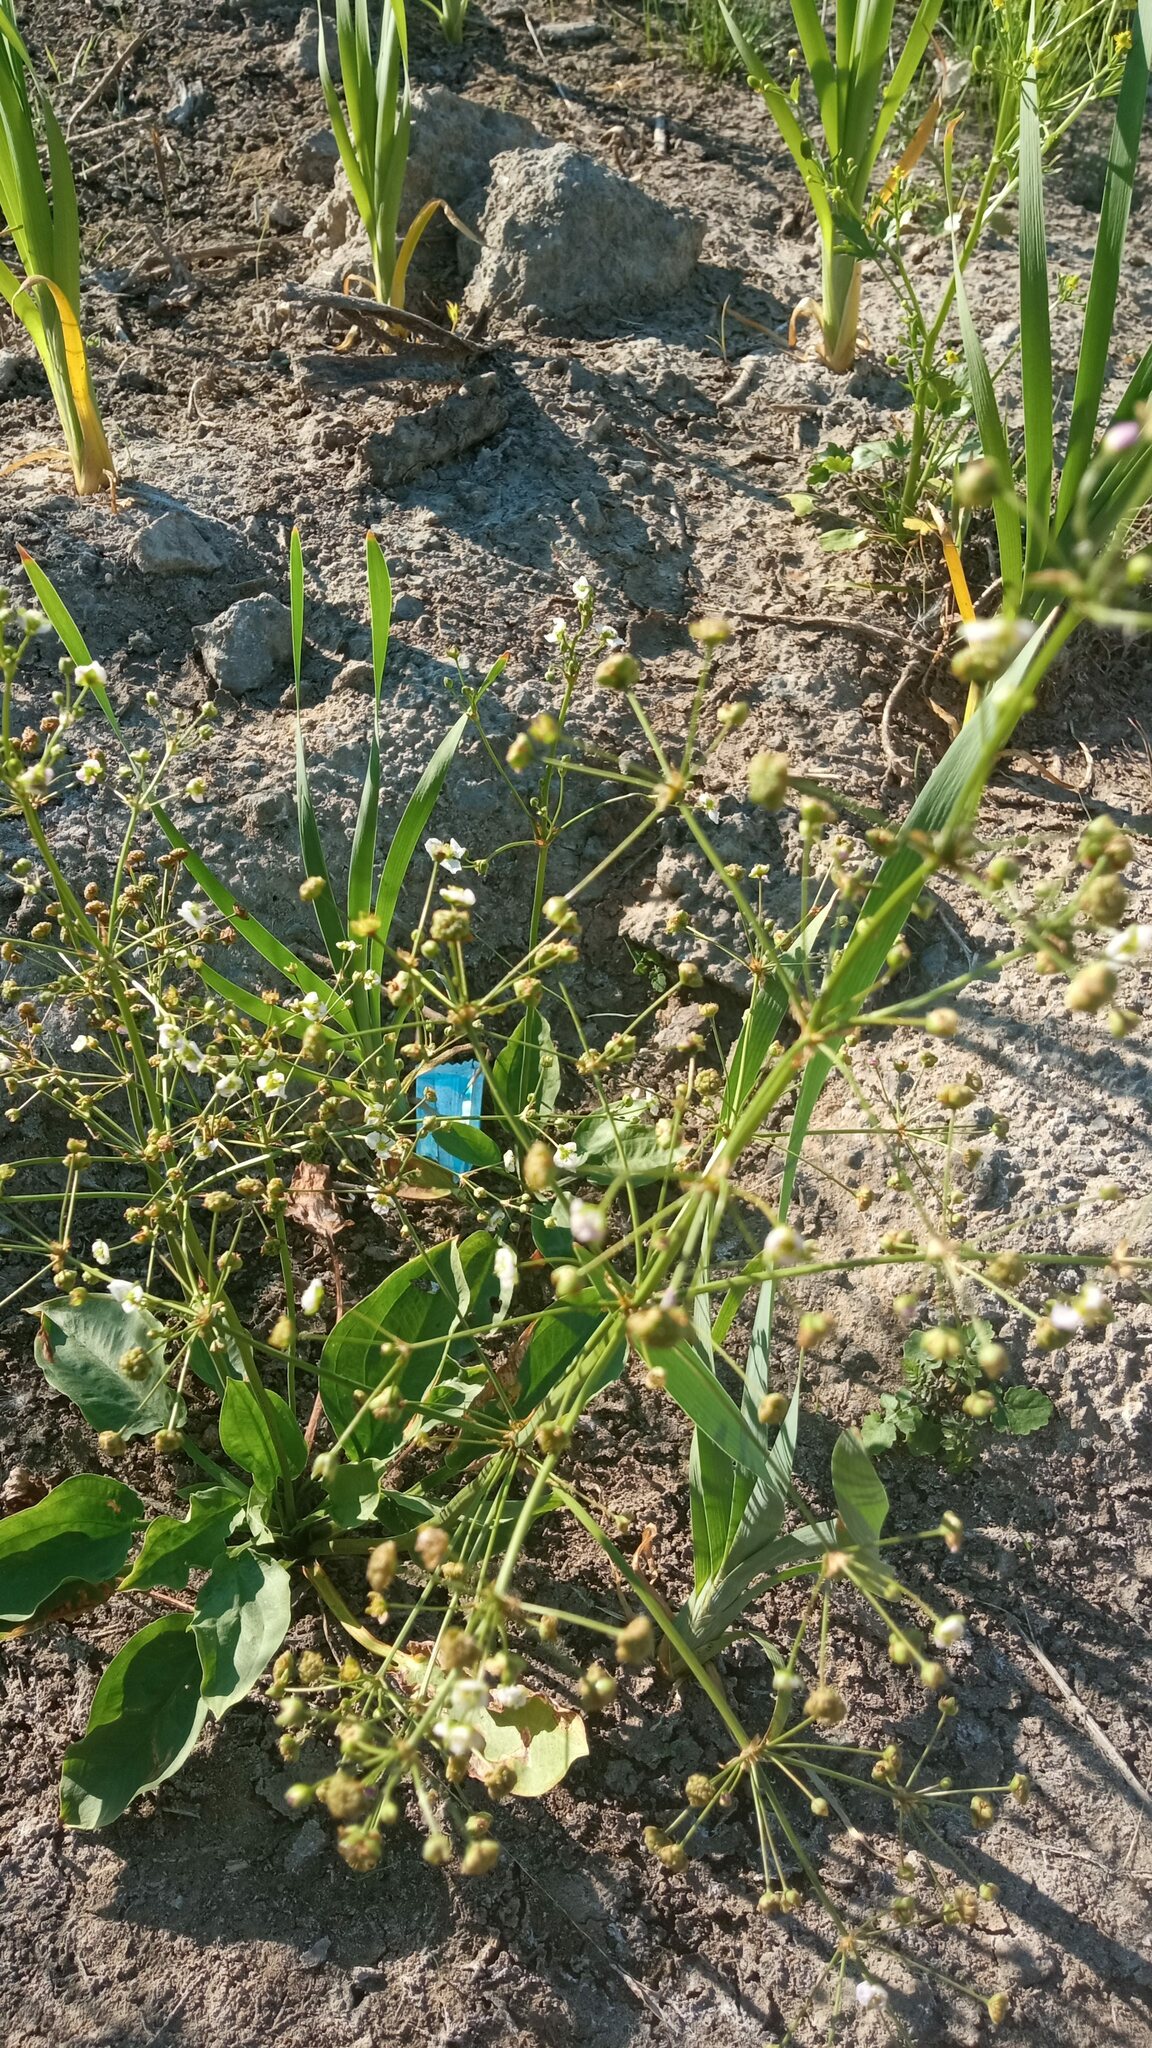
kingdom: Plantae
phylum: Tracheophyta
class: Liliopsida
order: Alismatales
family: Alismataceae
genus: Alisma
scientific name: Alisma plantago-aquatica
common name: Water-plantain
